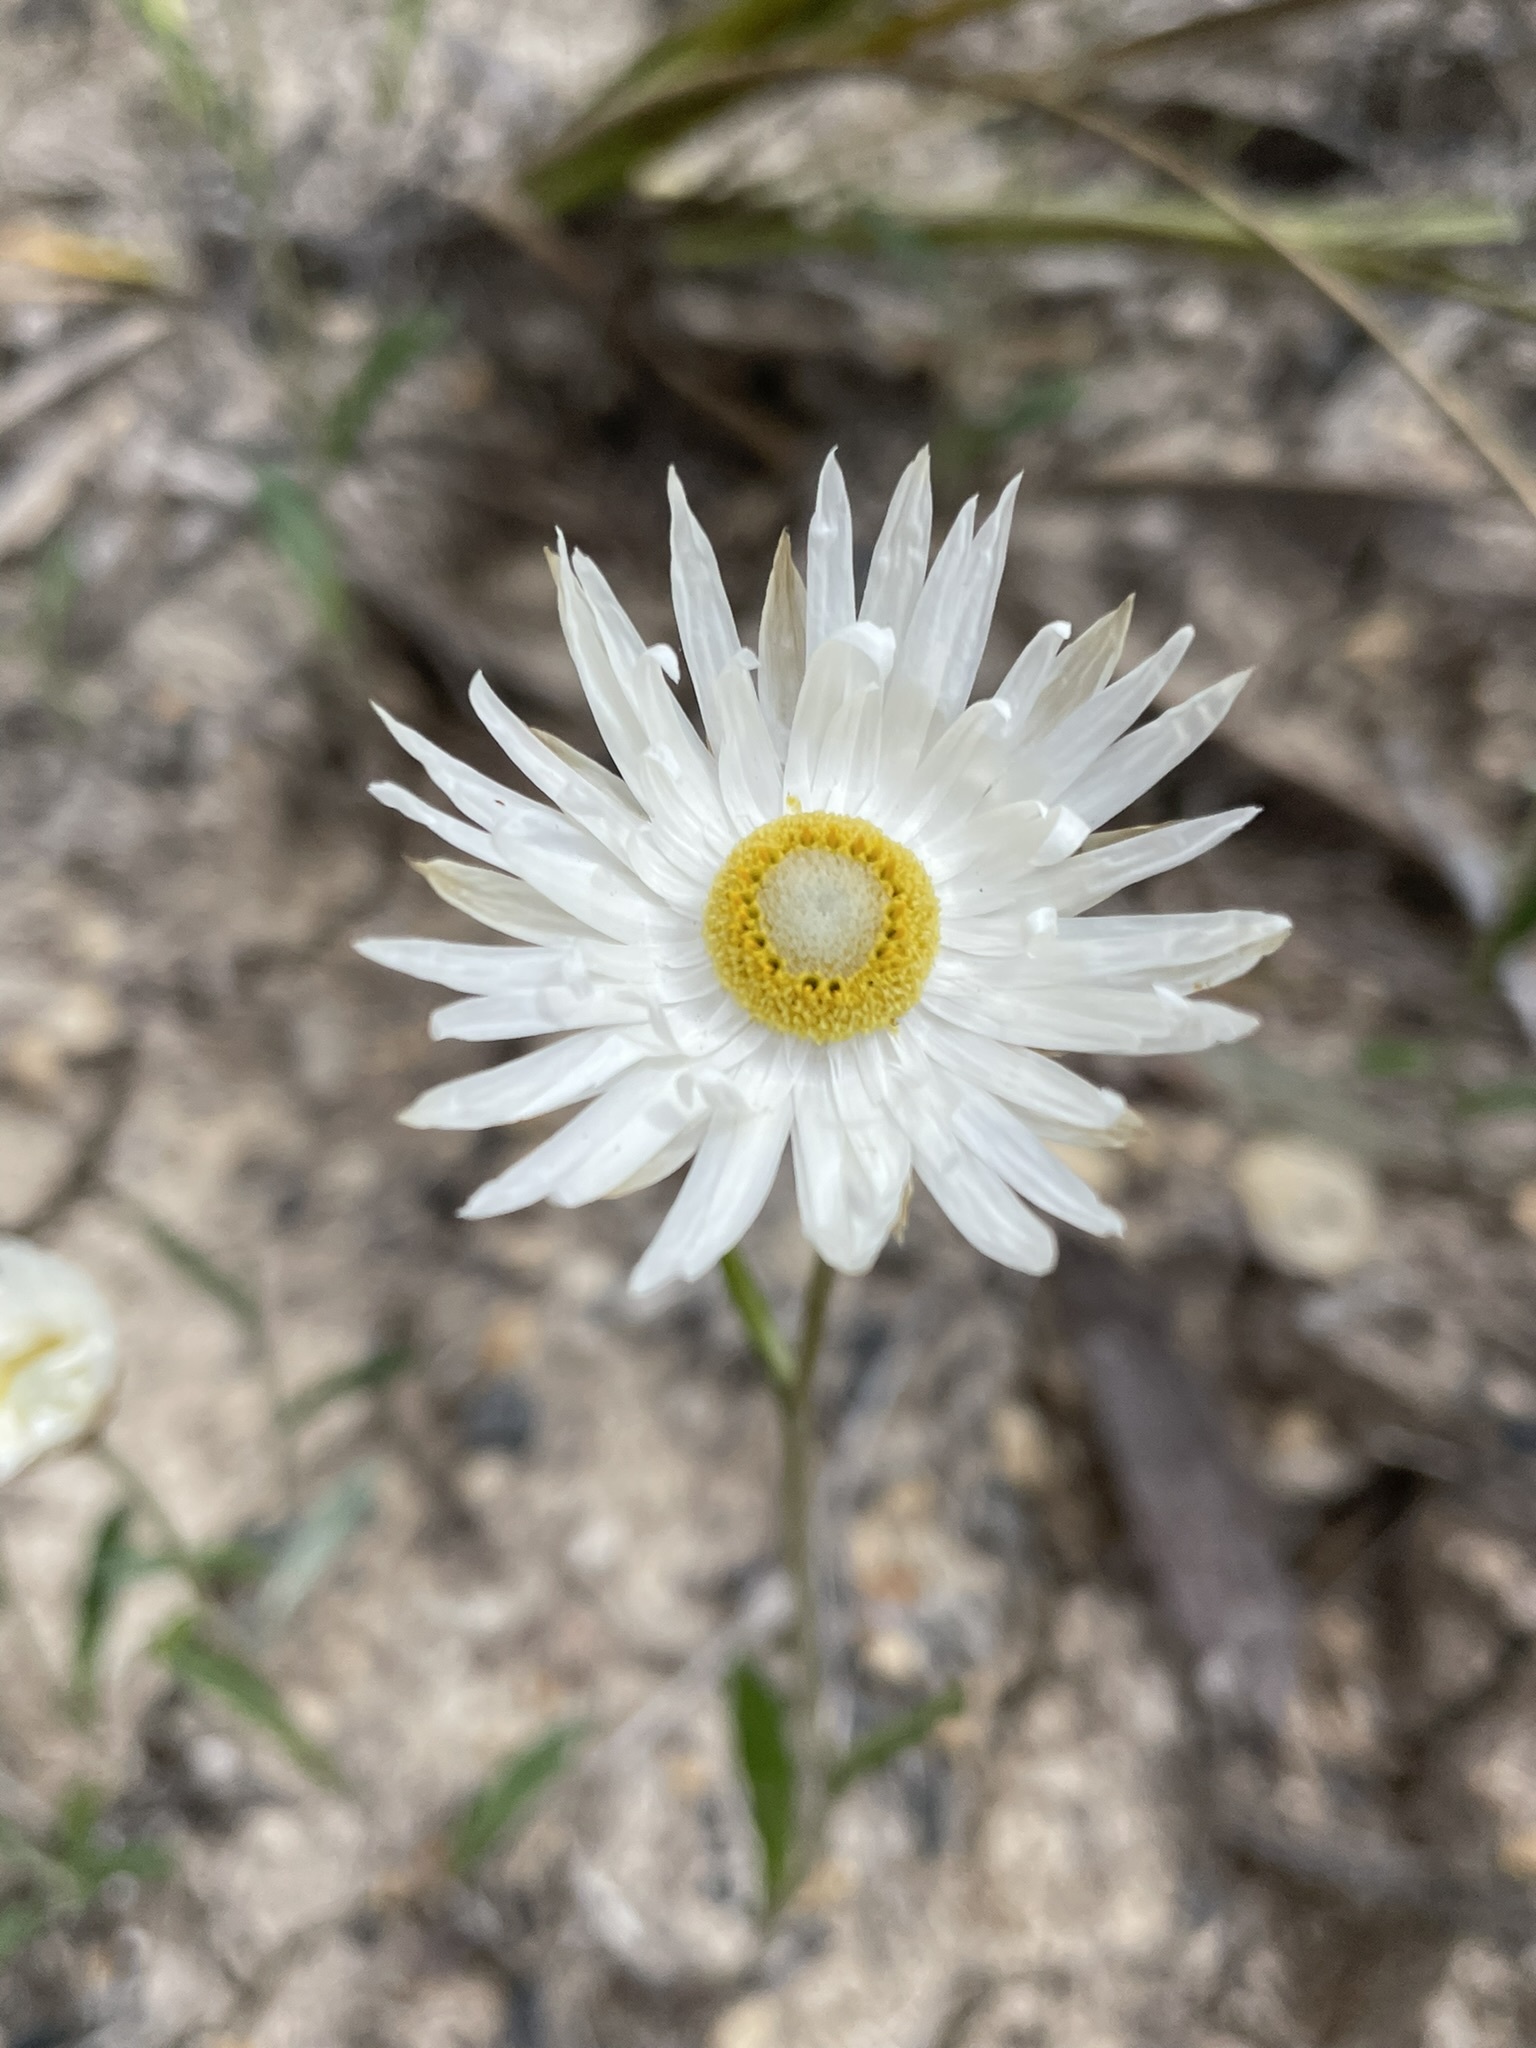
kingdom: Plantae
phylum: Tracheophyta
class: Magnoliopsida
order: Asterales
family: Asteraceae
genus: Argentipallium
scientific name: Argentipallium dealbatum
